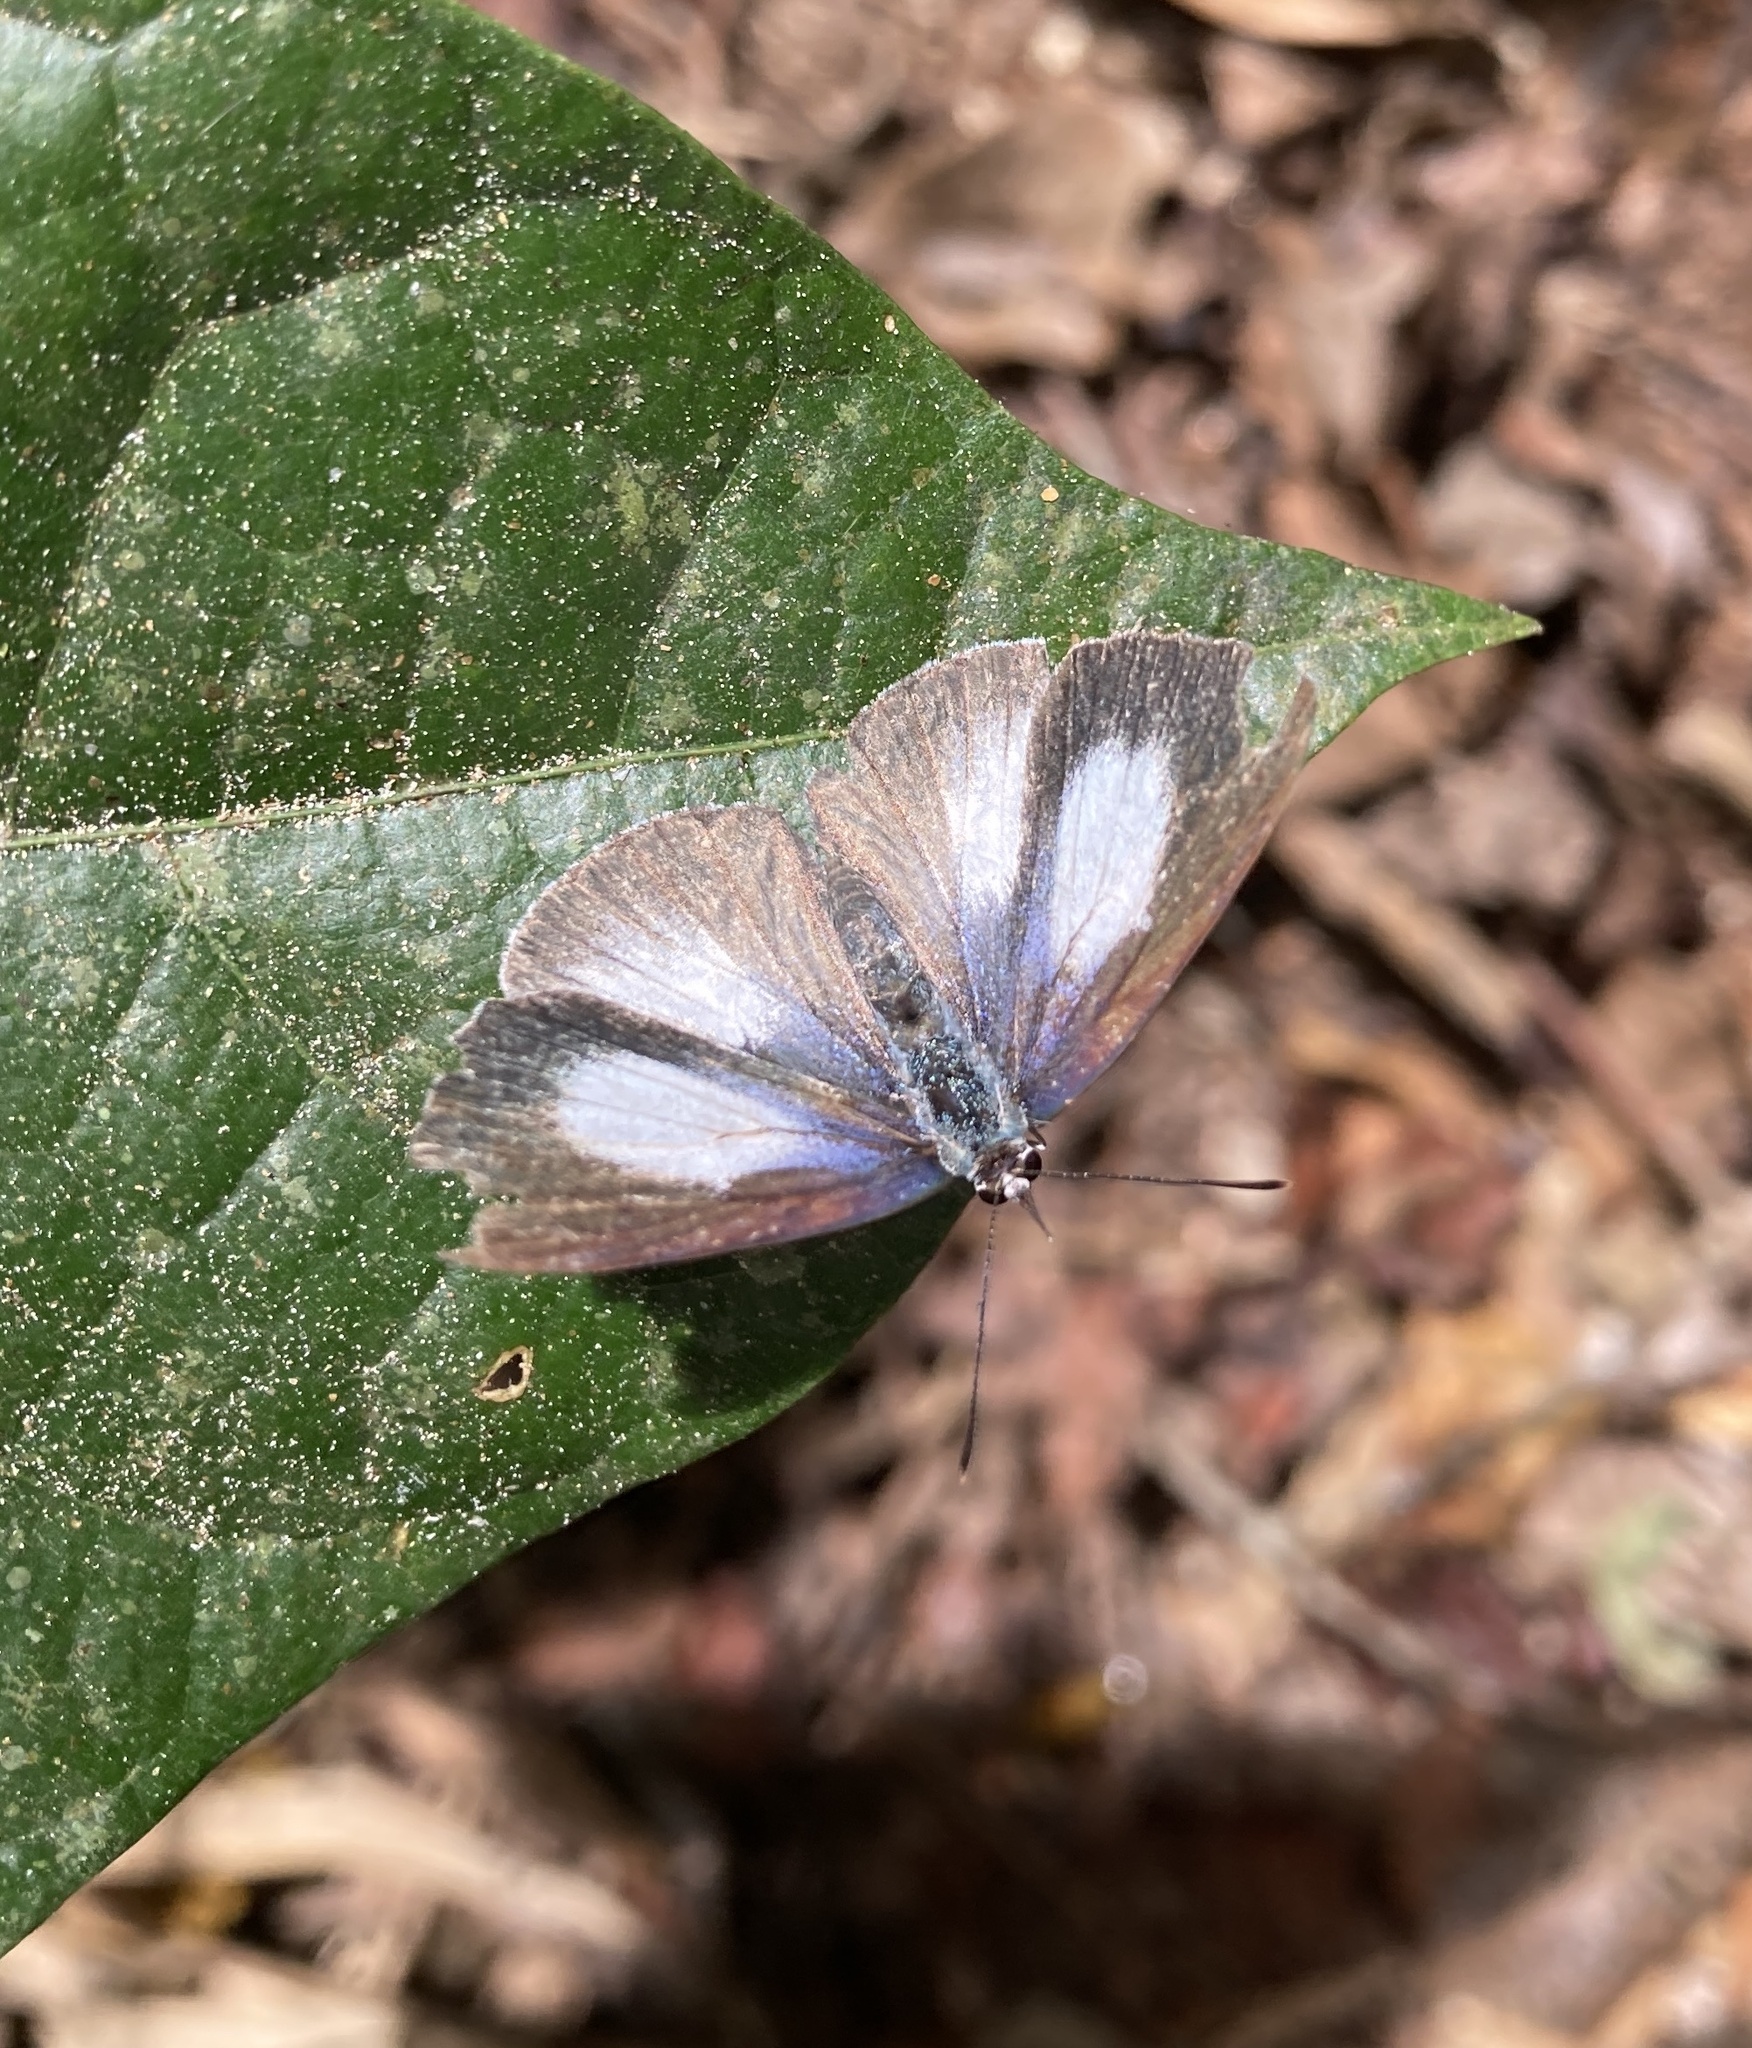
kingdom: Animalia
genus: Eirmocides
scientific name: Eirmocides
